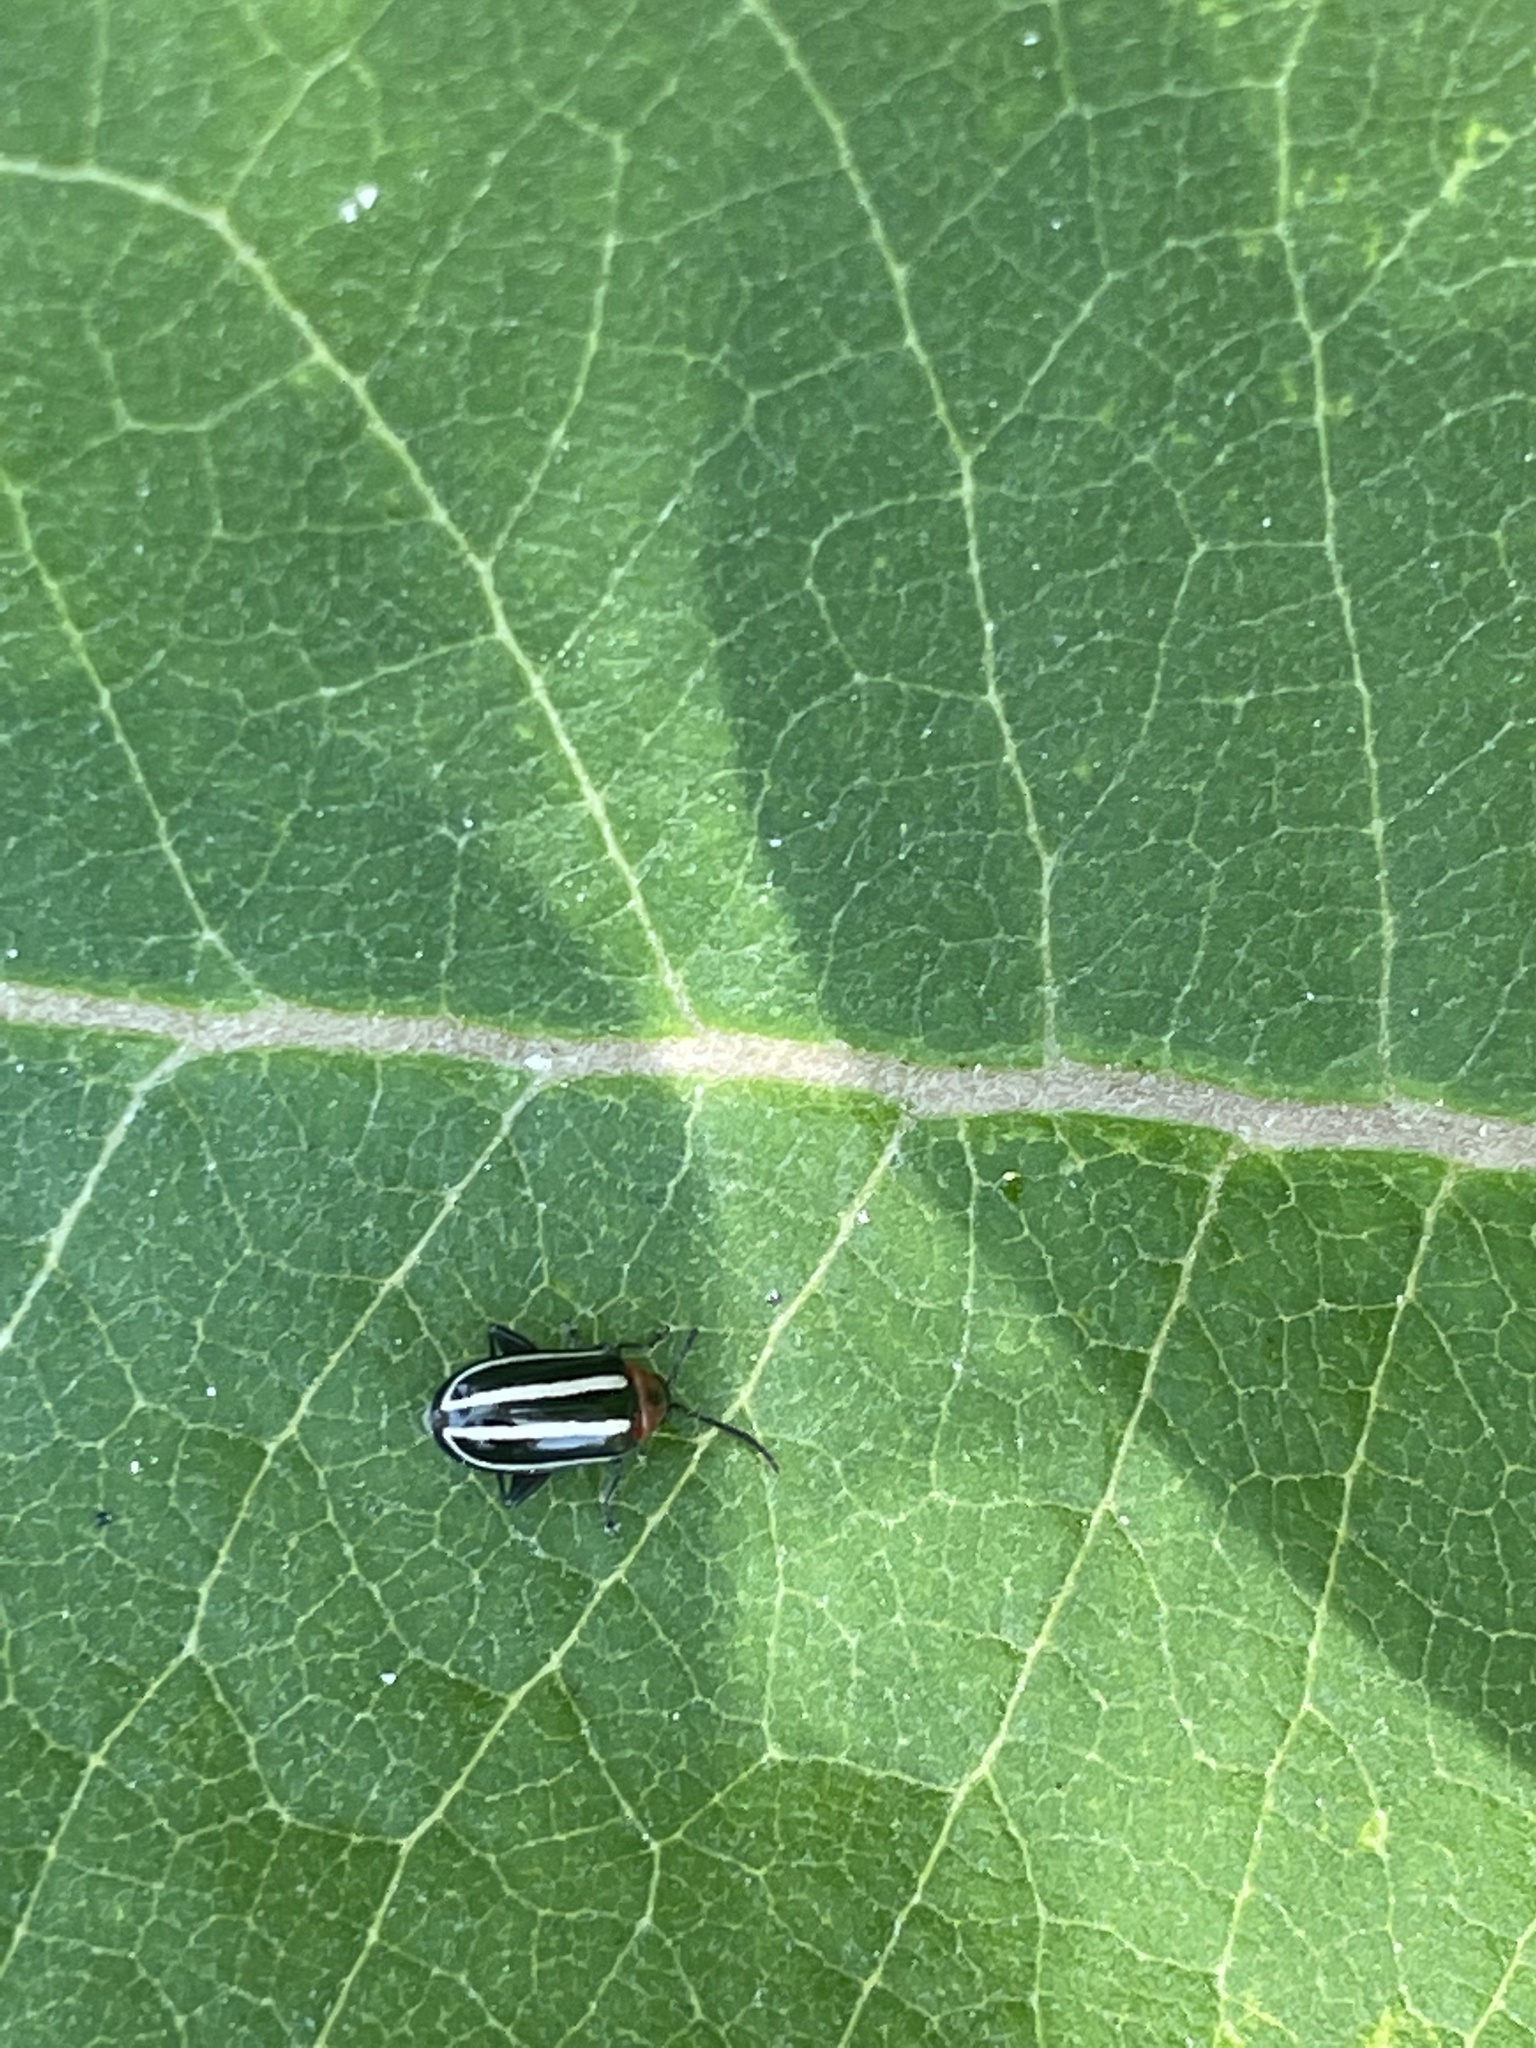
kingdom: Animalia
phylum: Arthropoda
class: Insecta
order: Coleoptera
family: Chrysomelidae
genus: Disonycha
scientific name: Disonycha glabrata
